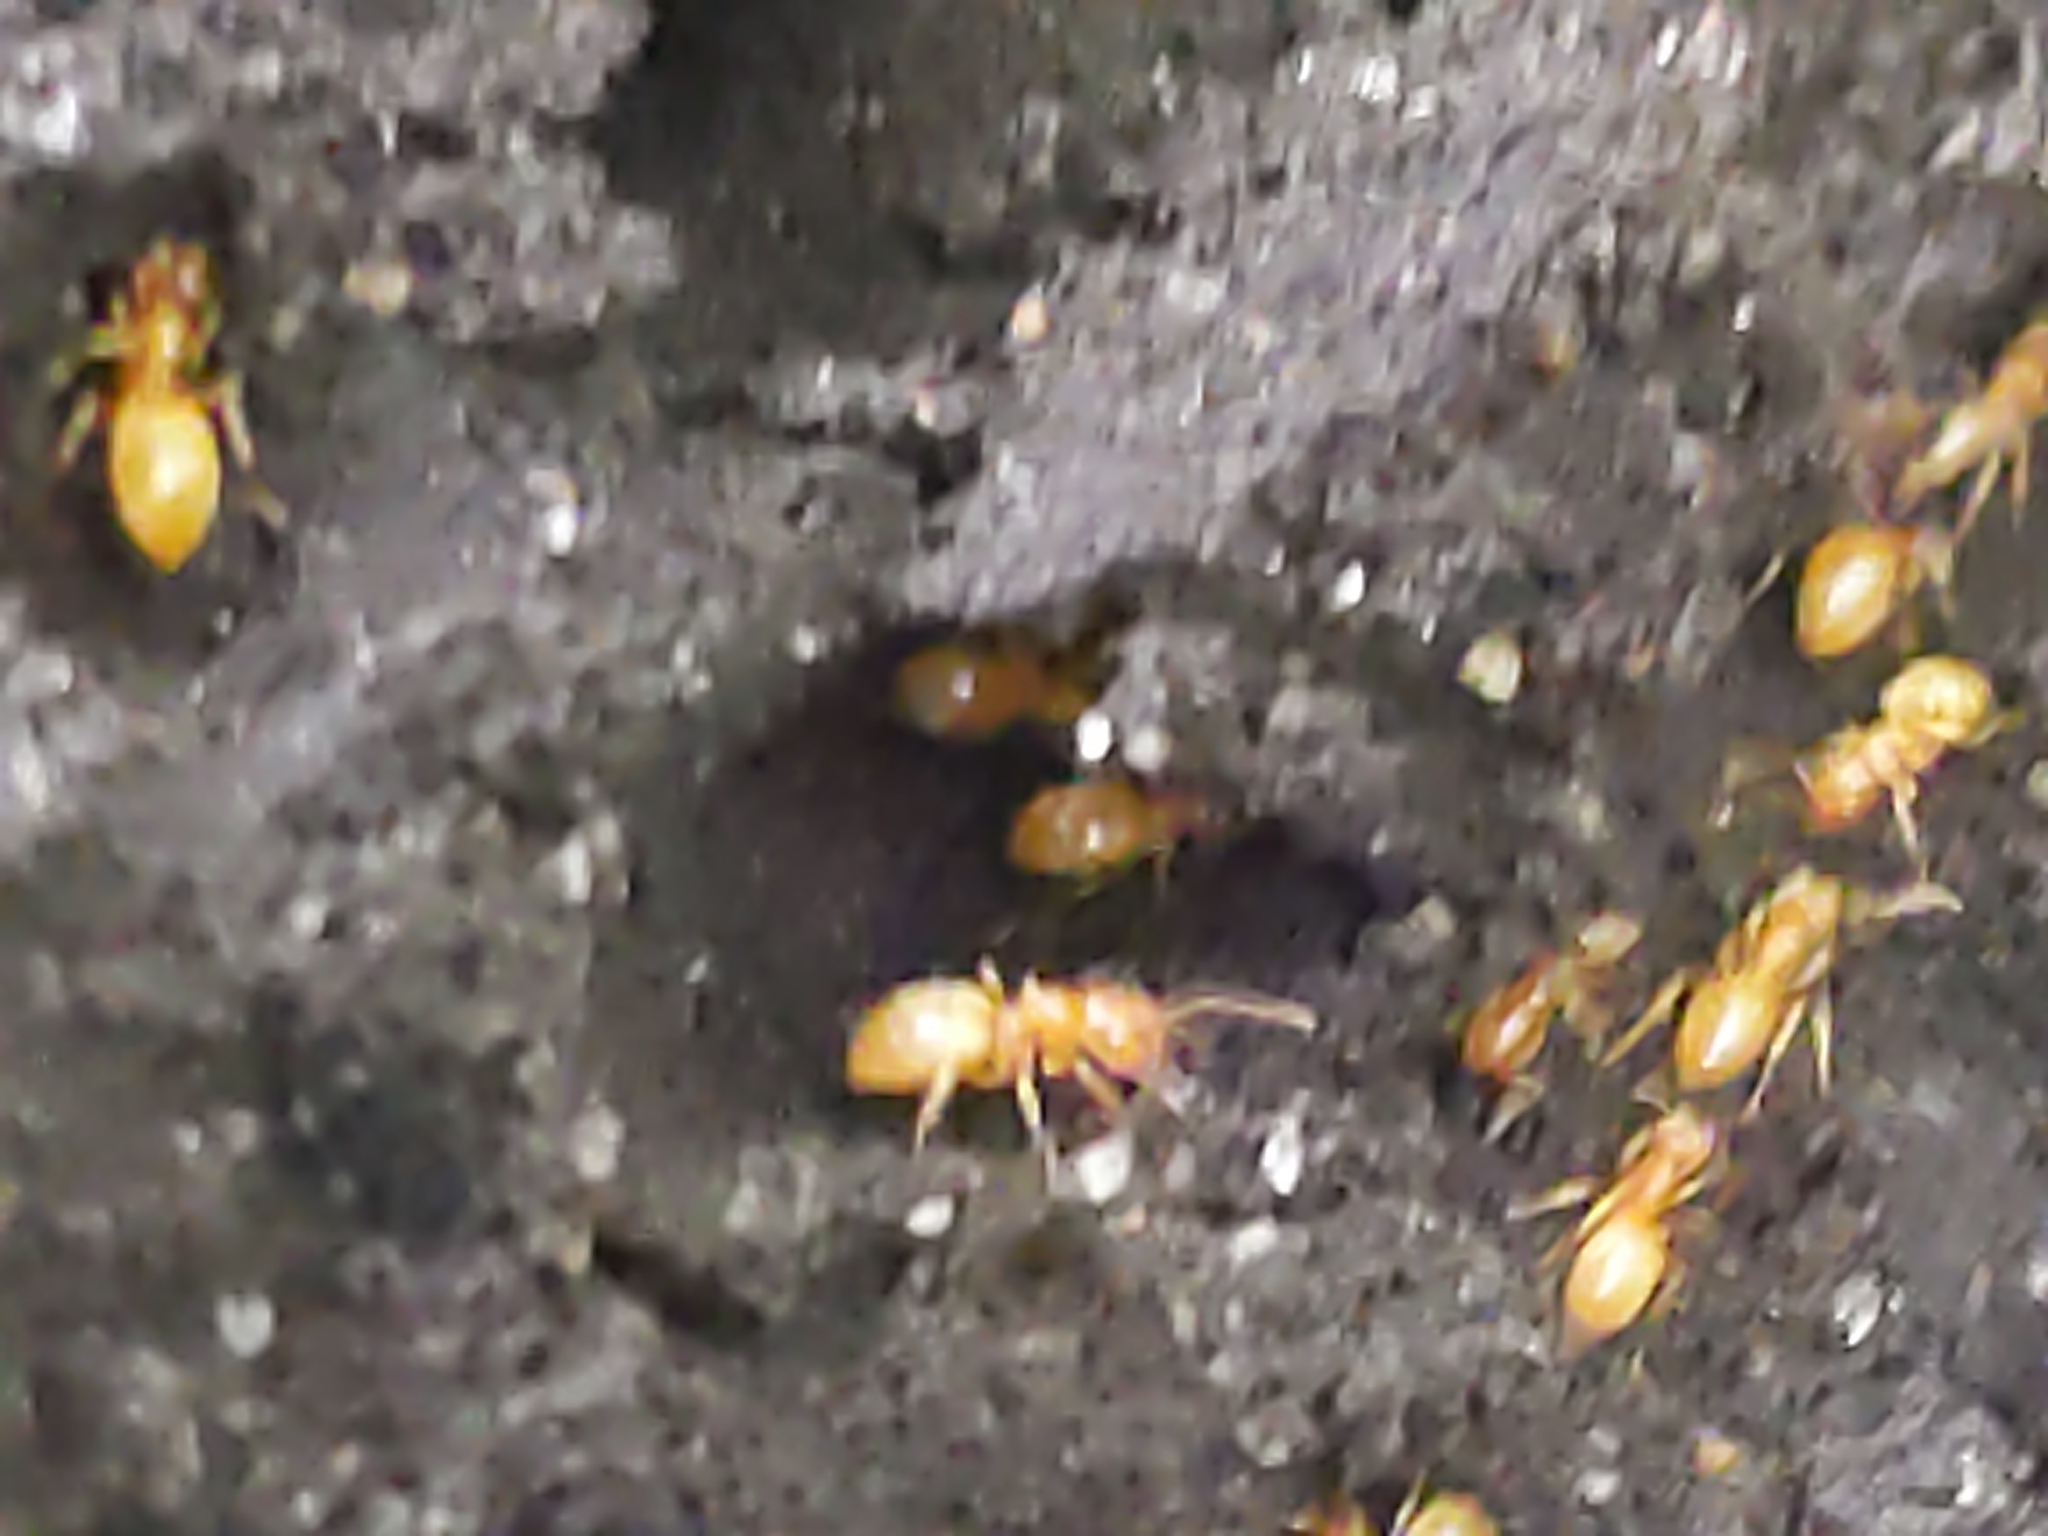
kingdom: Animalia
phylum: Arthropoda
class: Insecta
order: Hymenoptera
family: Formicidae
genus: Cautolasius
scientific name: Cautolasius
